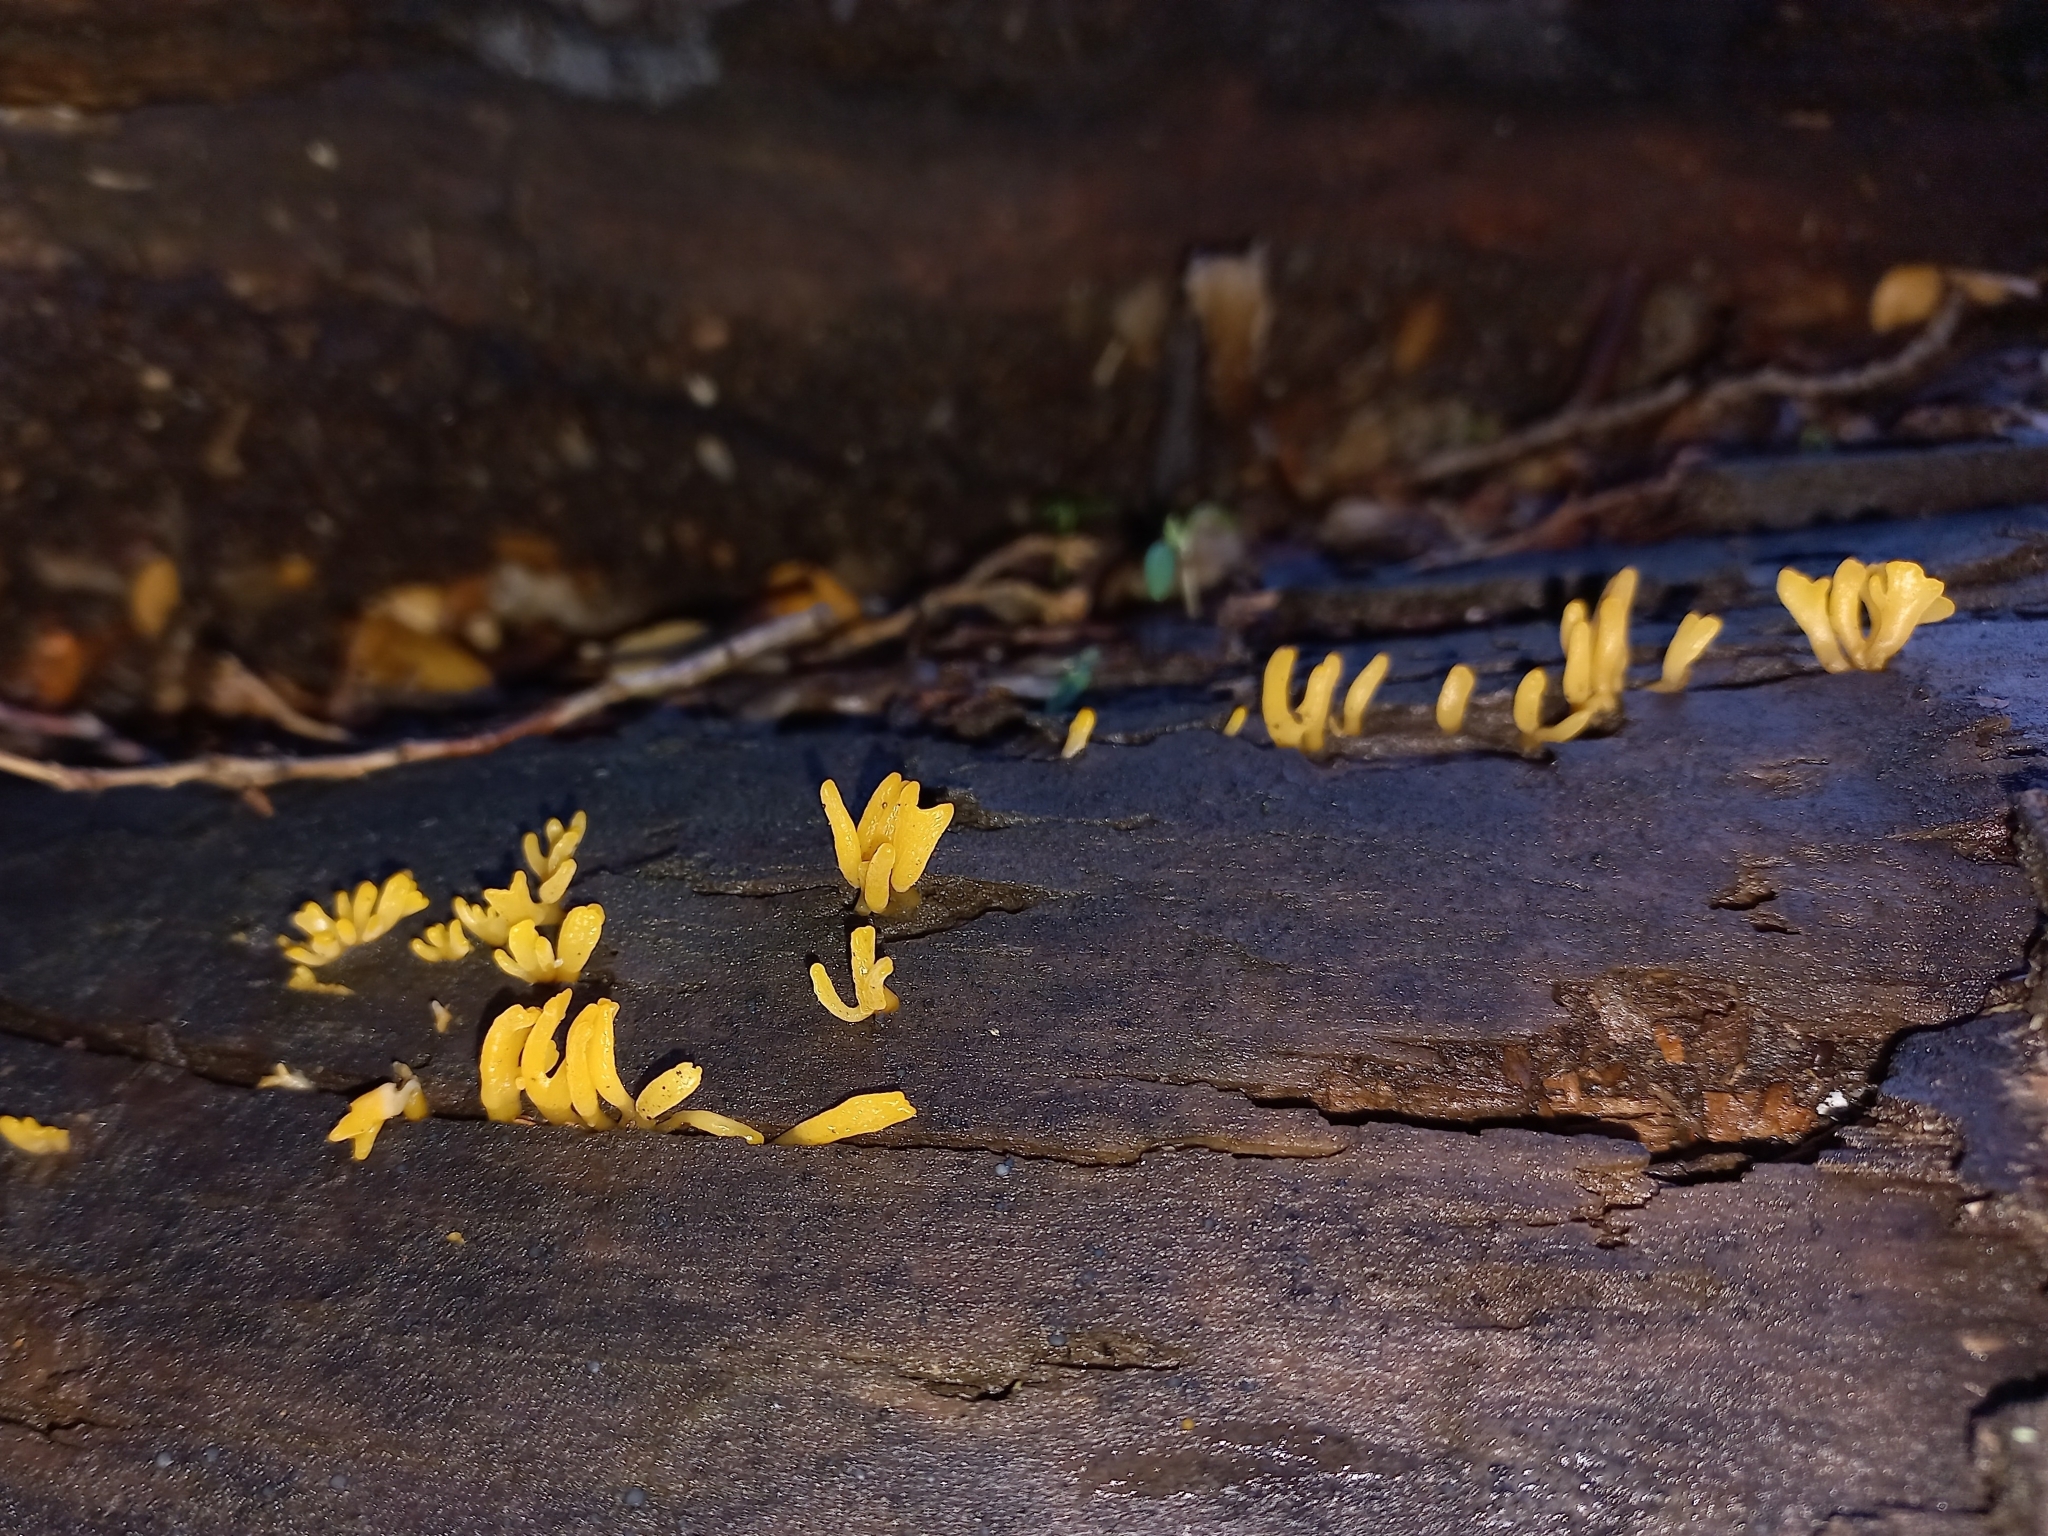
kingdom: Fungi
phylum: Basidiomycota
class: Dacrymycetes
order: Dacrymycetales
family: Dacrymycetaceae
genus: Calocera
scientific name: Calocera cornea
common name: Small stagshorn
